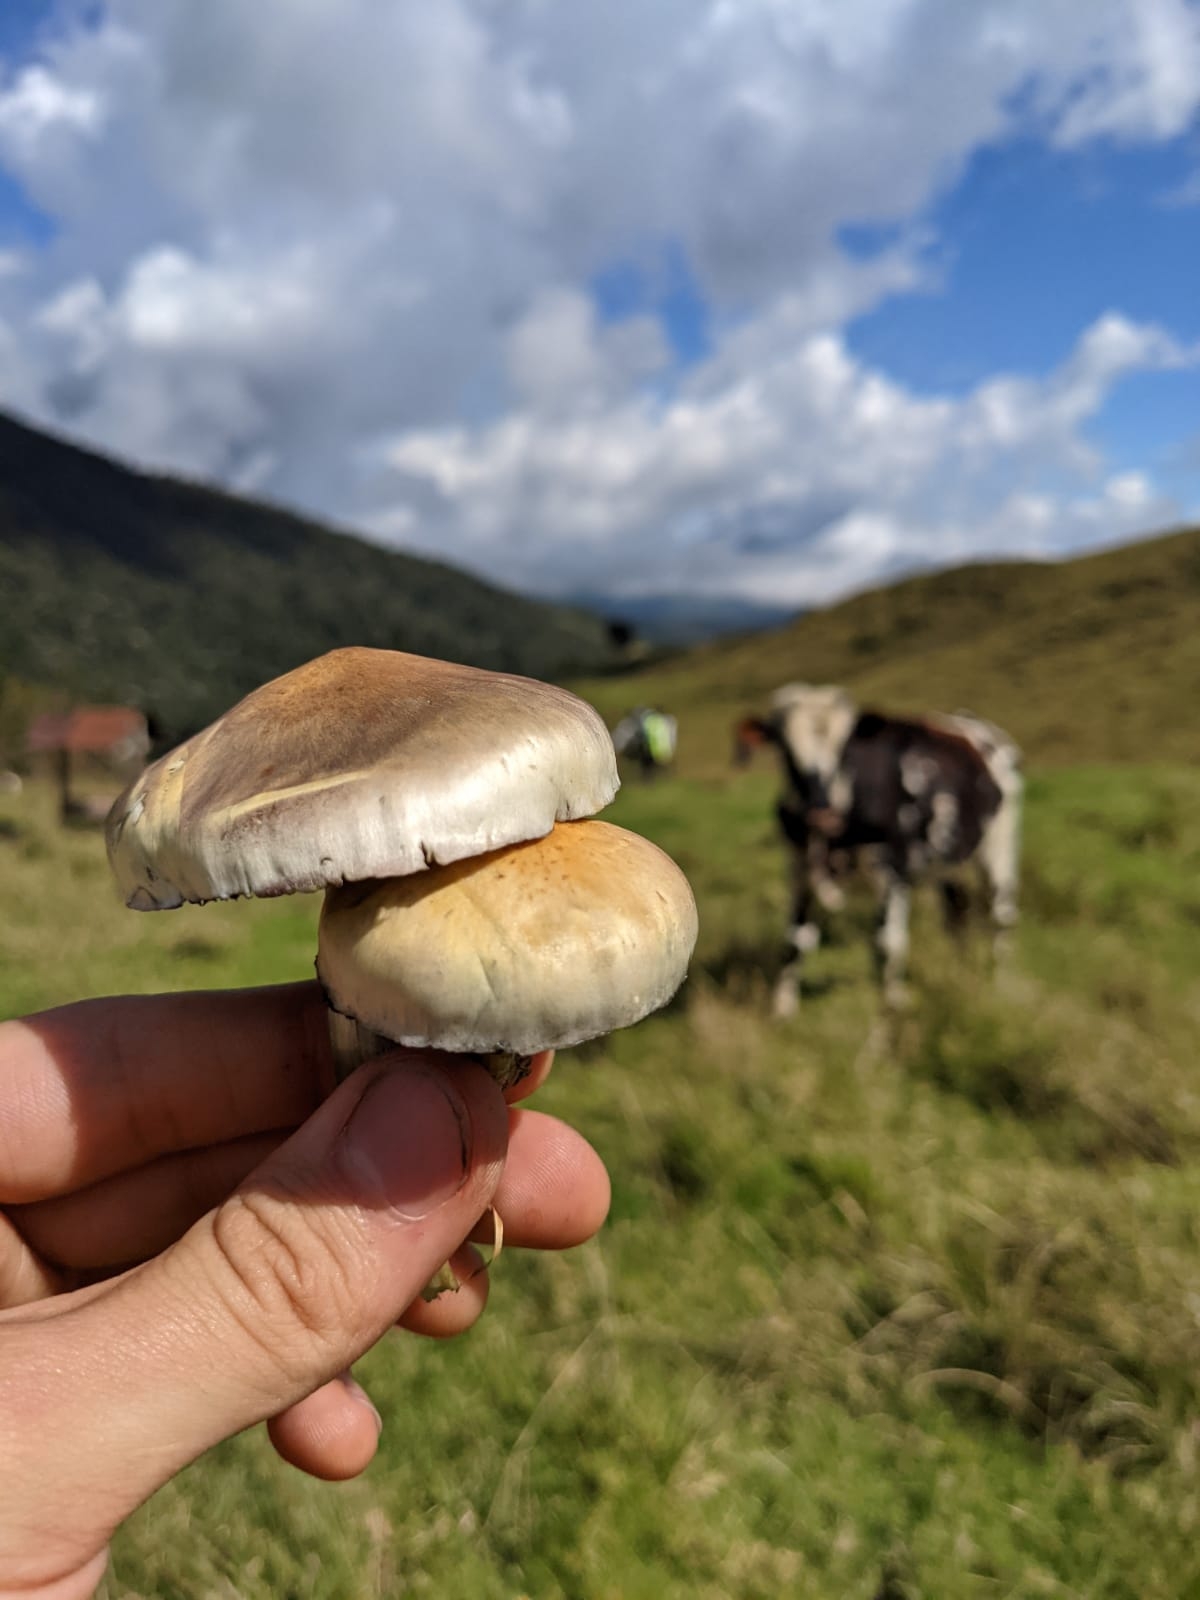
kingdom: Fungi
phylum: Basidiomycota
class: Agaricomycetes
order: Agaricales
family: Hymenogastraceae
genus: Psilocybe
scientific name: Psilocybe cubensis
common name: Golden brownie
